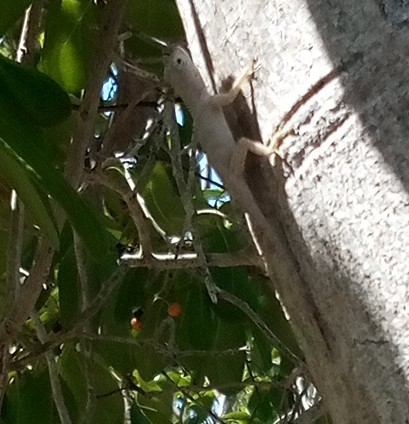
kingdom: Animalia
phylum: Chordata
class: Squamata
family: Dactyloidae
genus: Anolis
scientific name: Anolis distichus
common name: Bark anole
